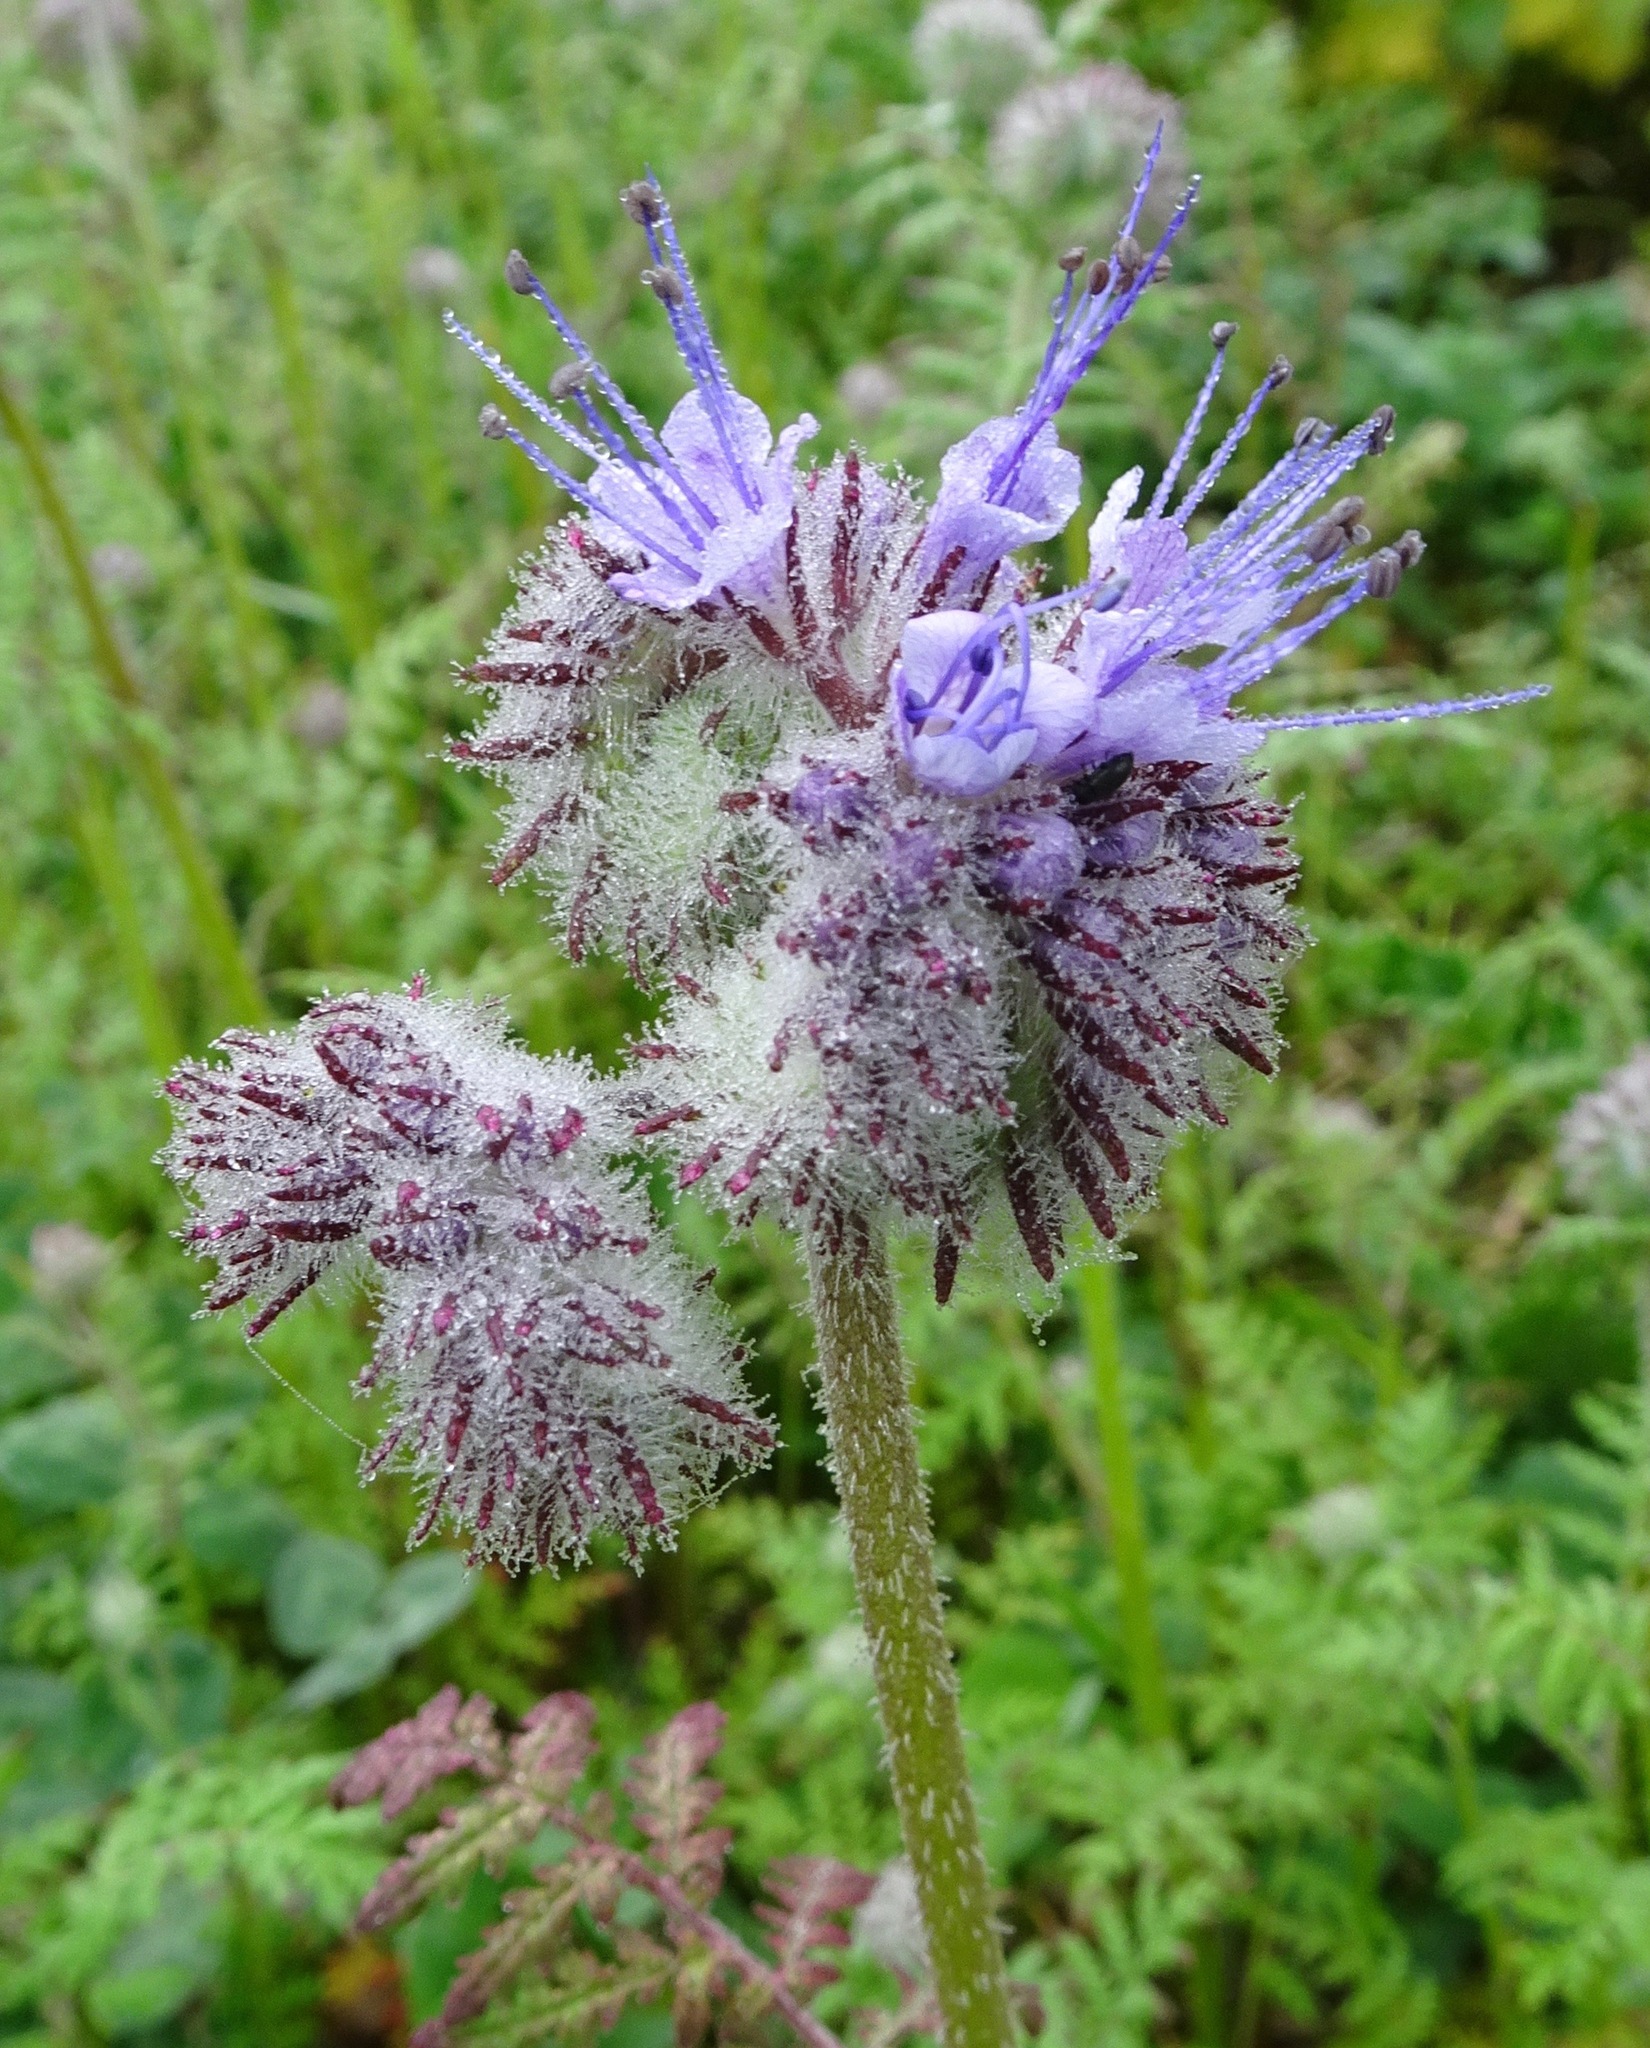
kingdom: Plantae
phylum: Tracheophyta
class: Magnoliopsida
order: Boraginales
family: Hydrophyllaceae
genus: Phacelia
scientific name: Phacelia tanacetifolia
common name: Phacelia
